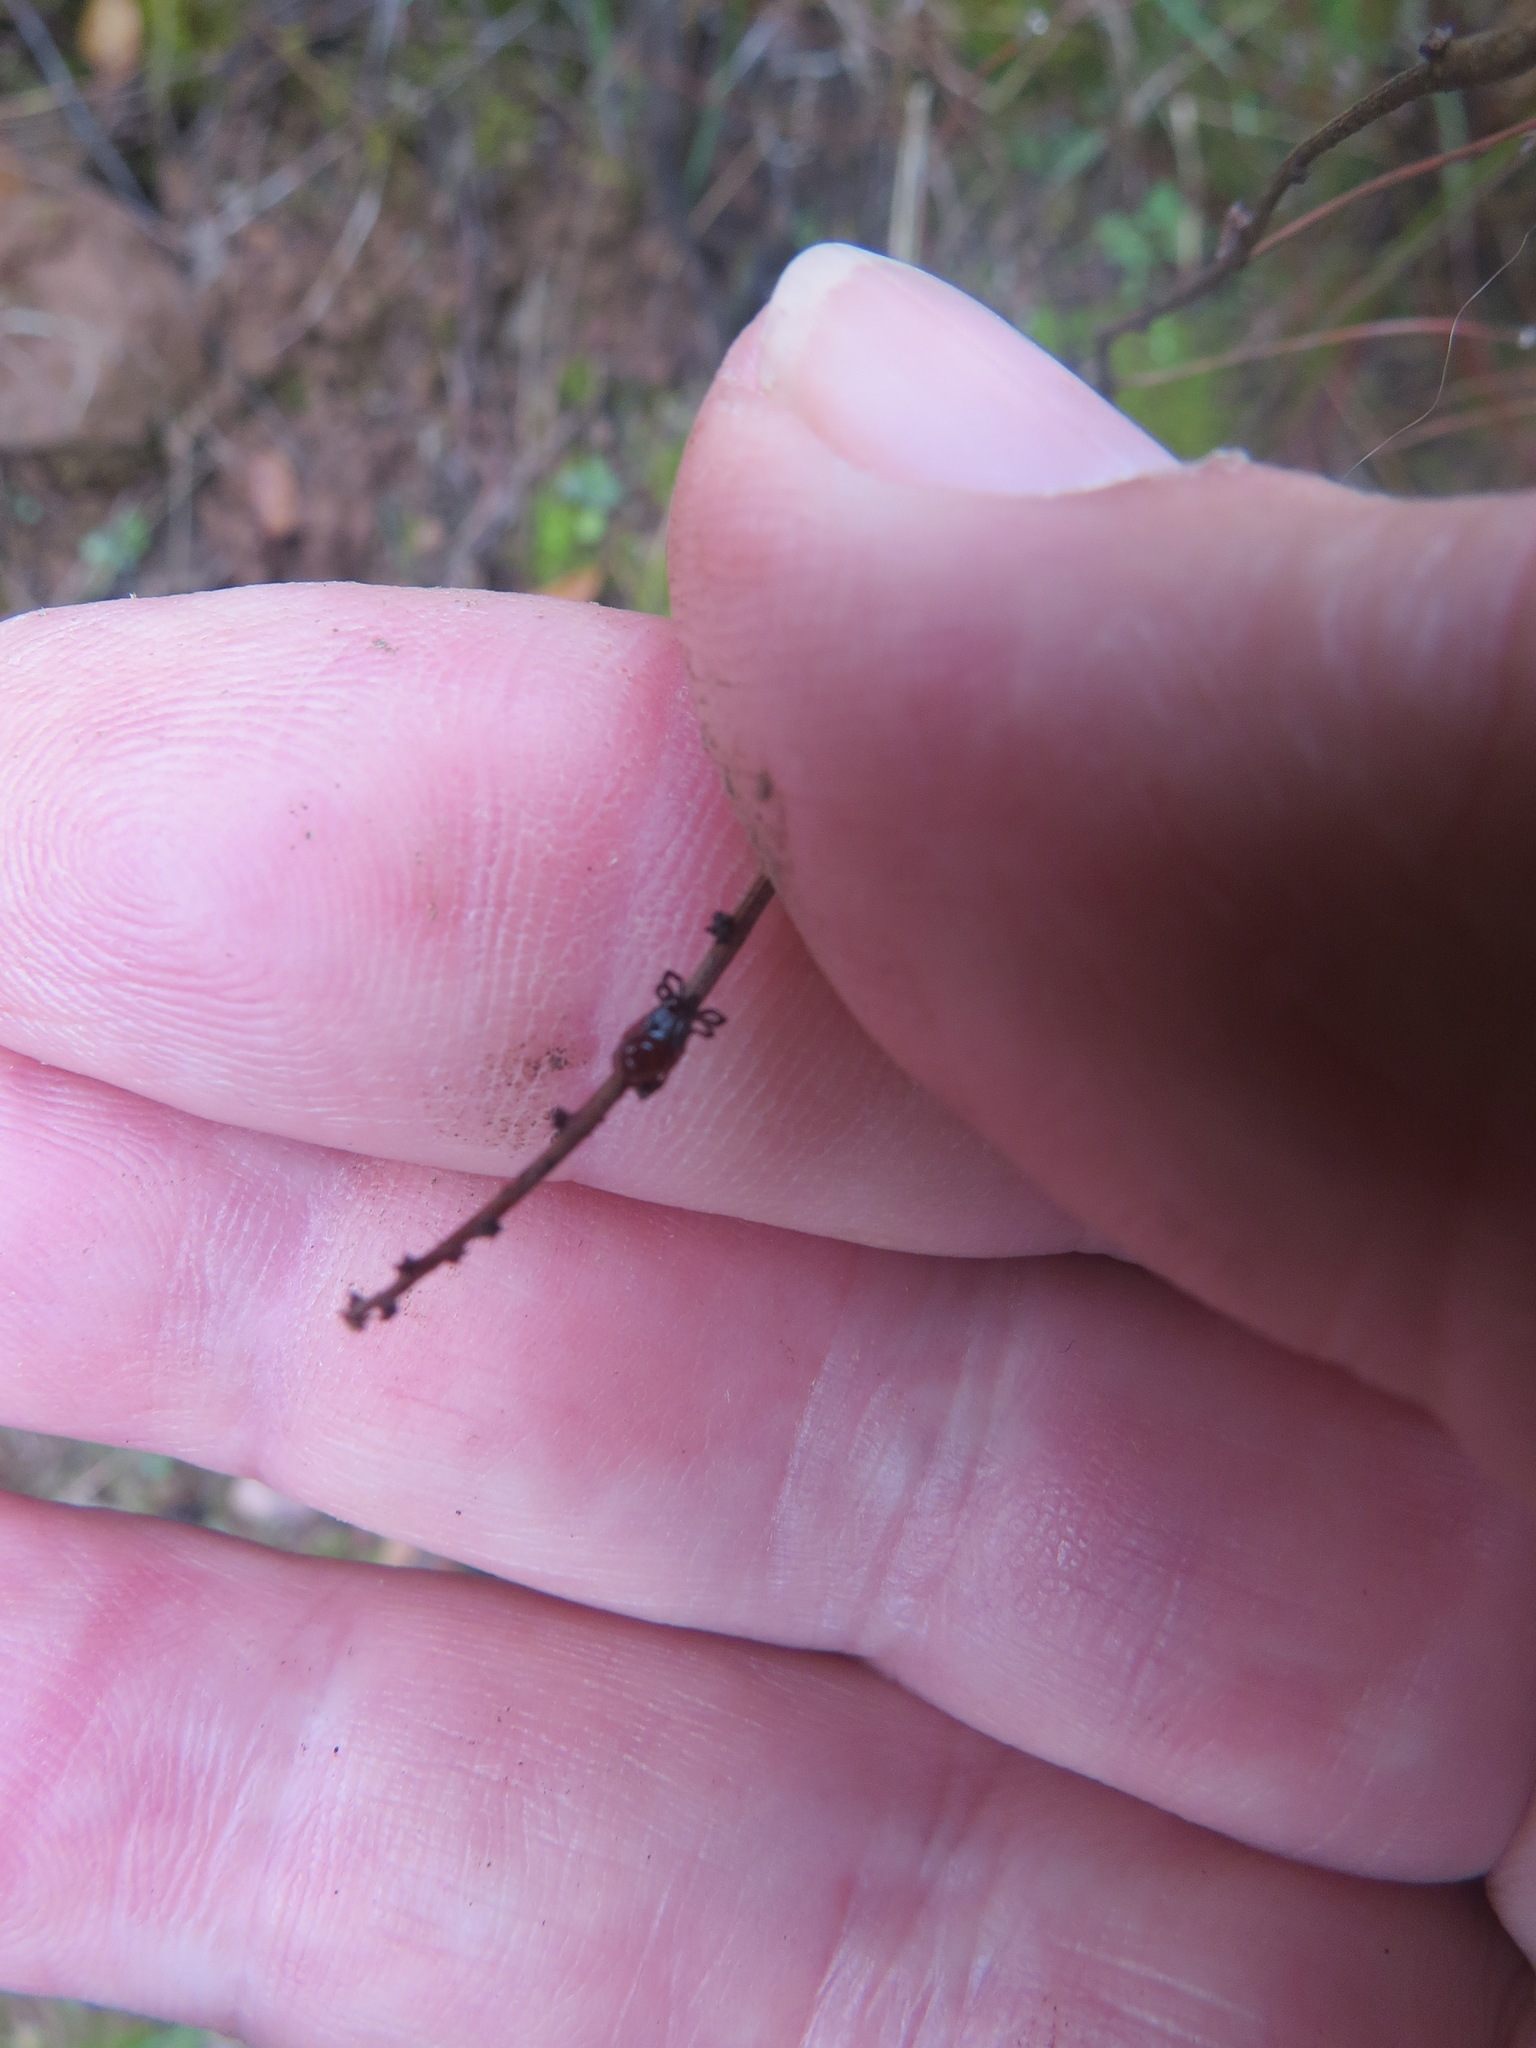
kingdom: Animalia
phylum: Arthropoda
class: Arachnida
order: Ixodida
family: Ixodidae
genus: Ixodes
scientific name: Ixodes pacificus
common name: California black-legged tick
